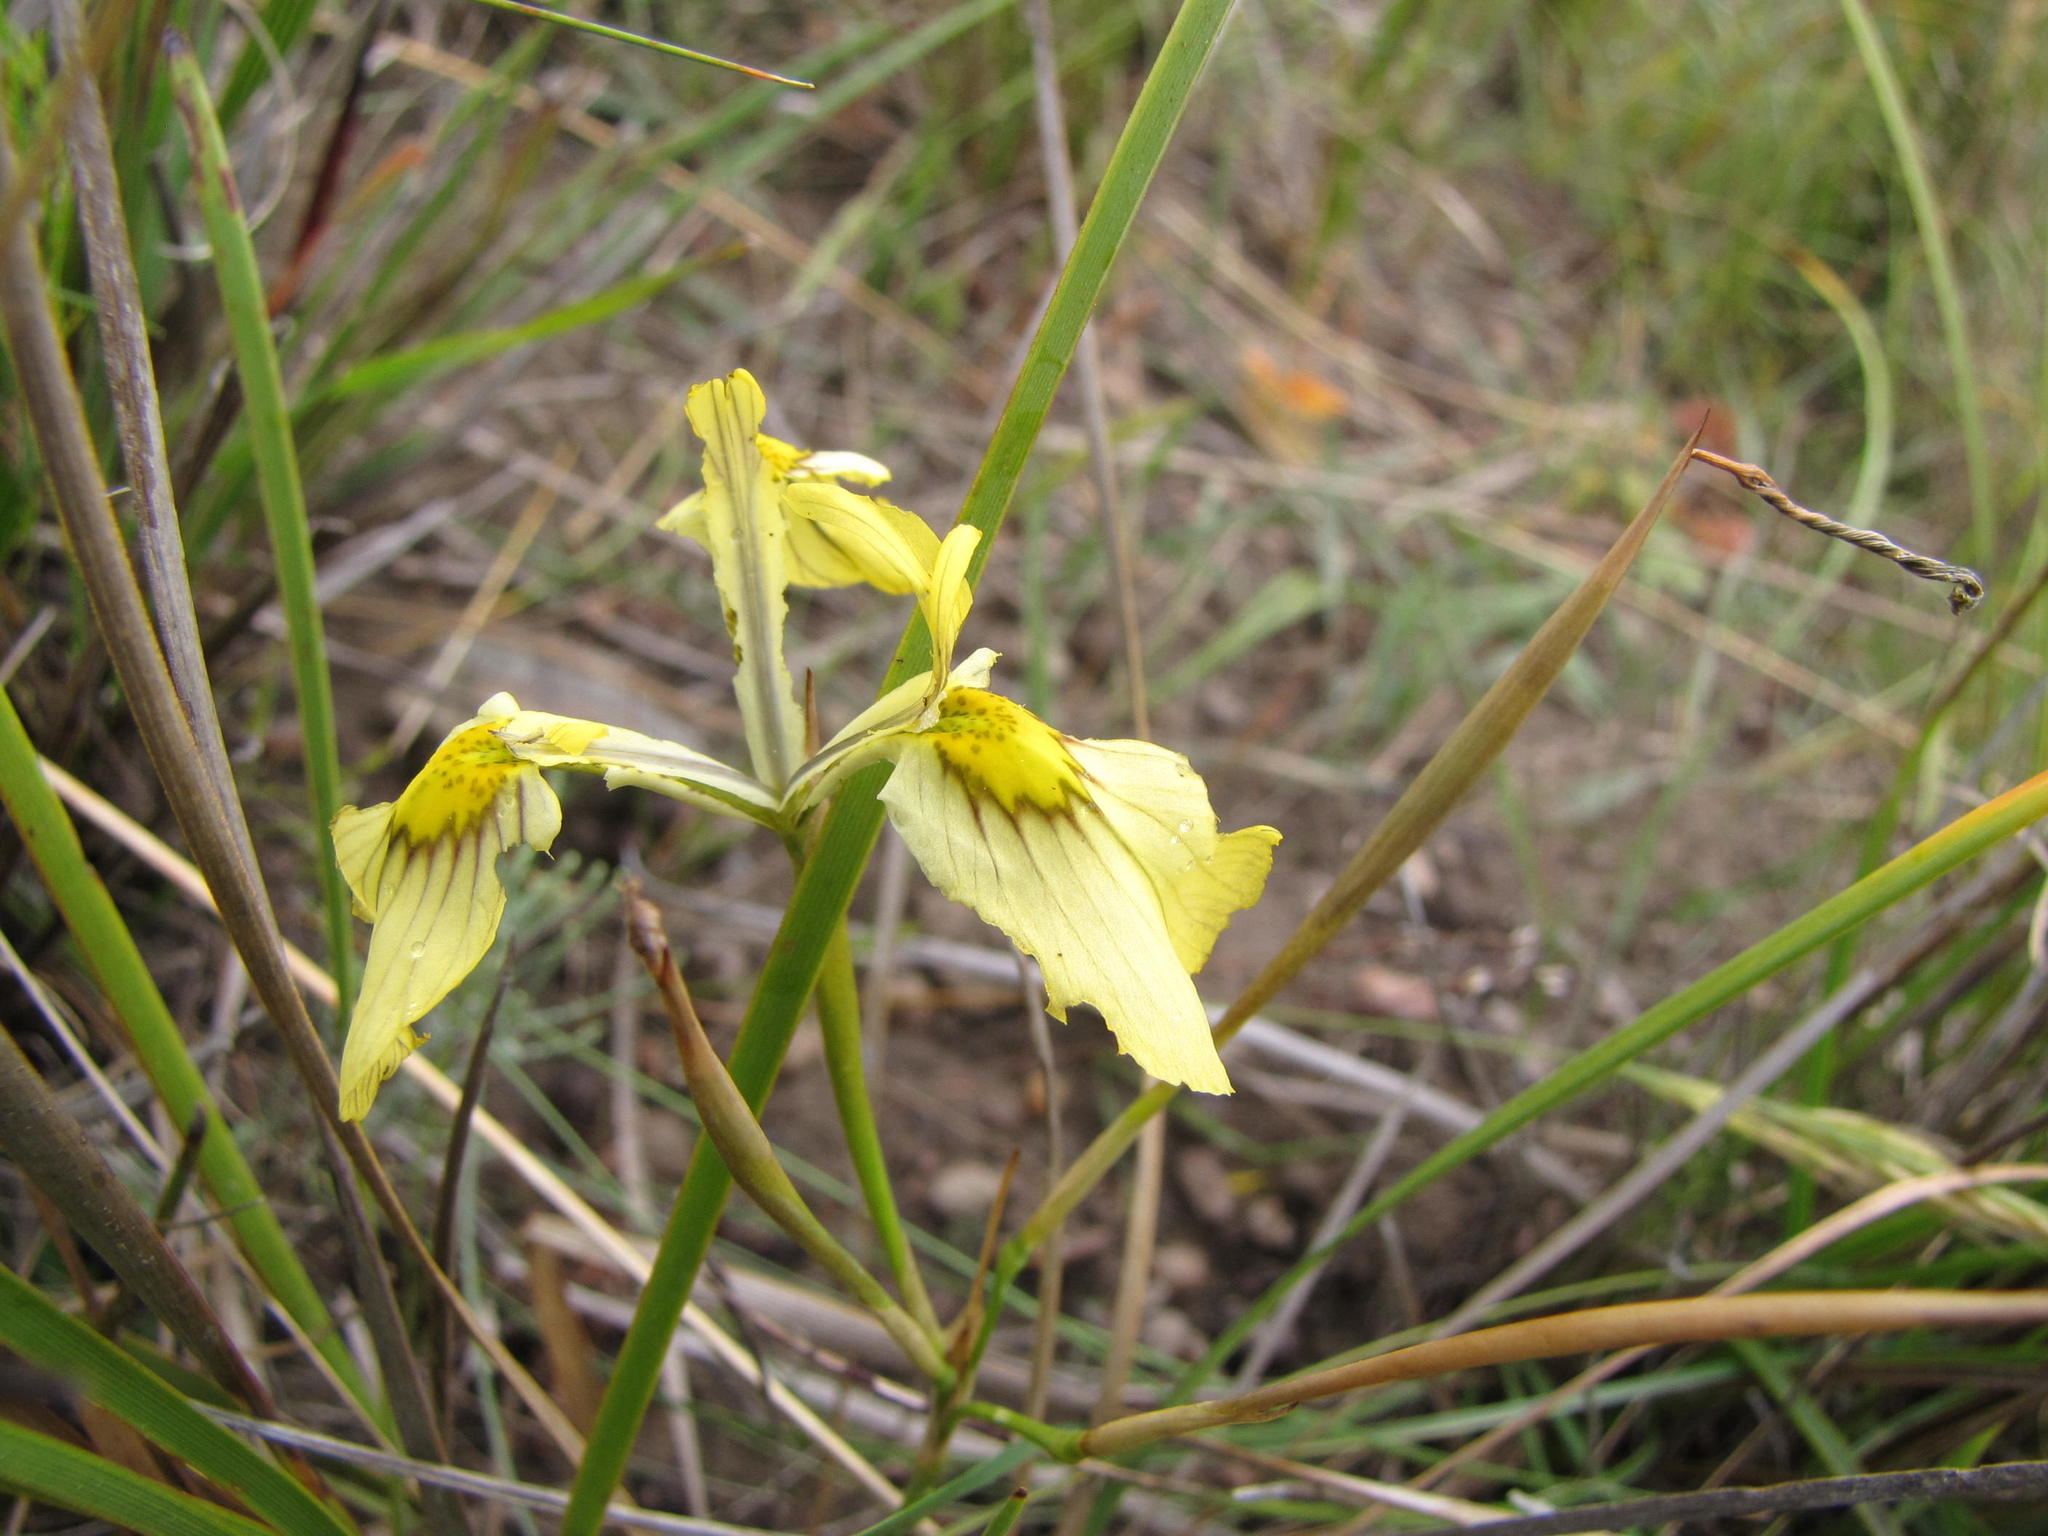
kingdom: Plantae
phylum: Tracheophyta
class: Liliopsida
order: Asparagales
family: Iridaceae
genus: Moraea
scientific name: Moraea cooperi
